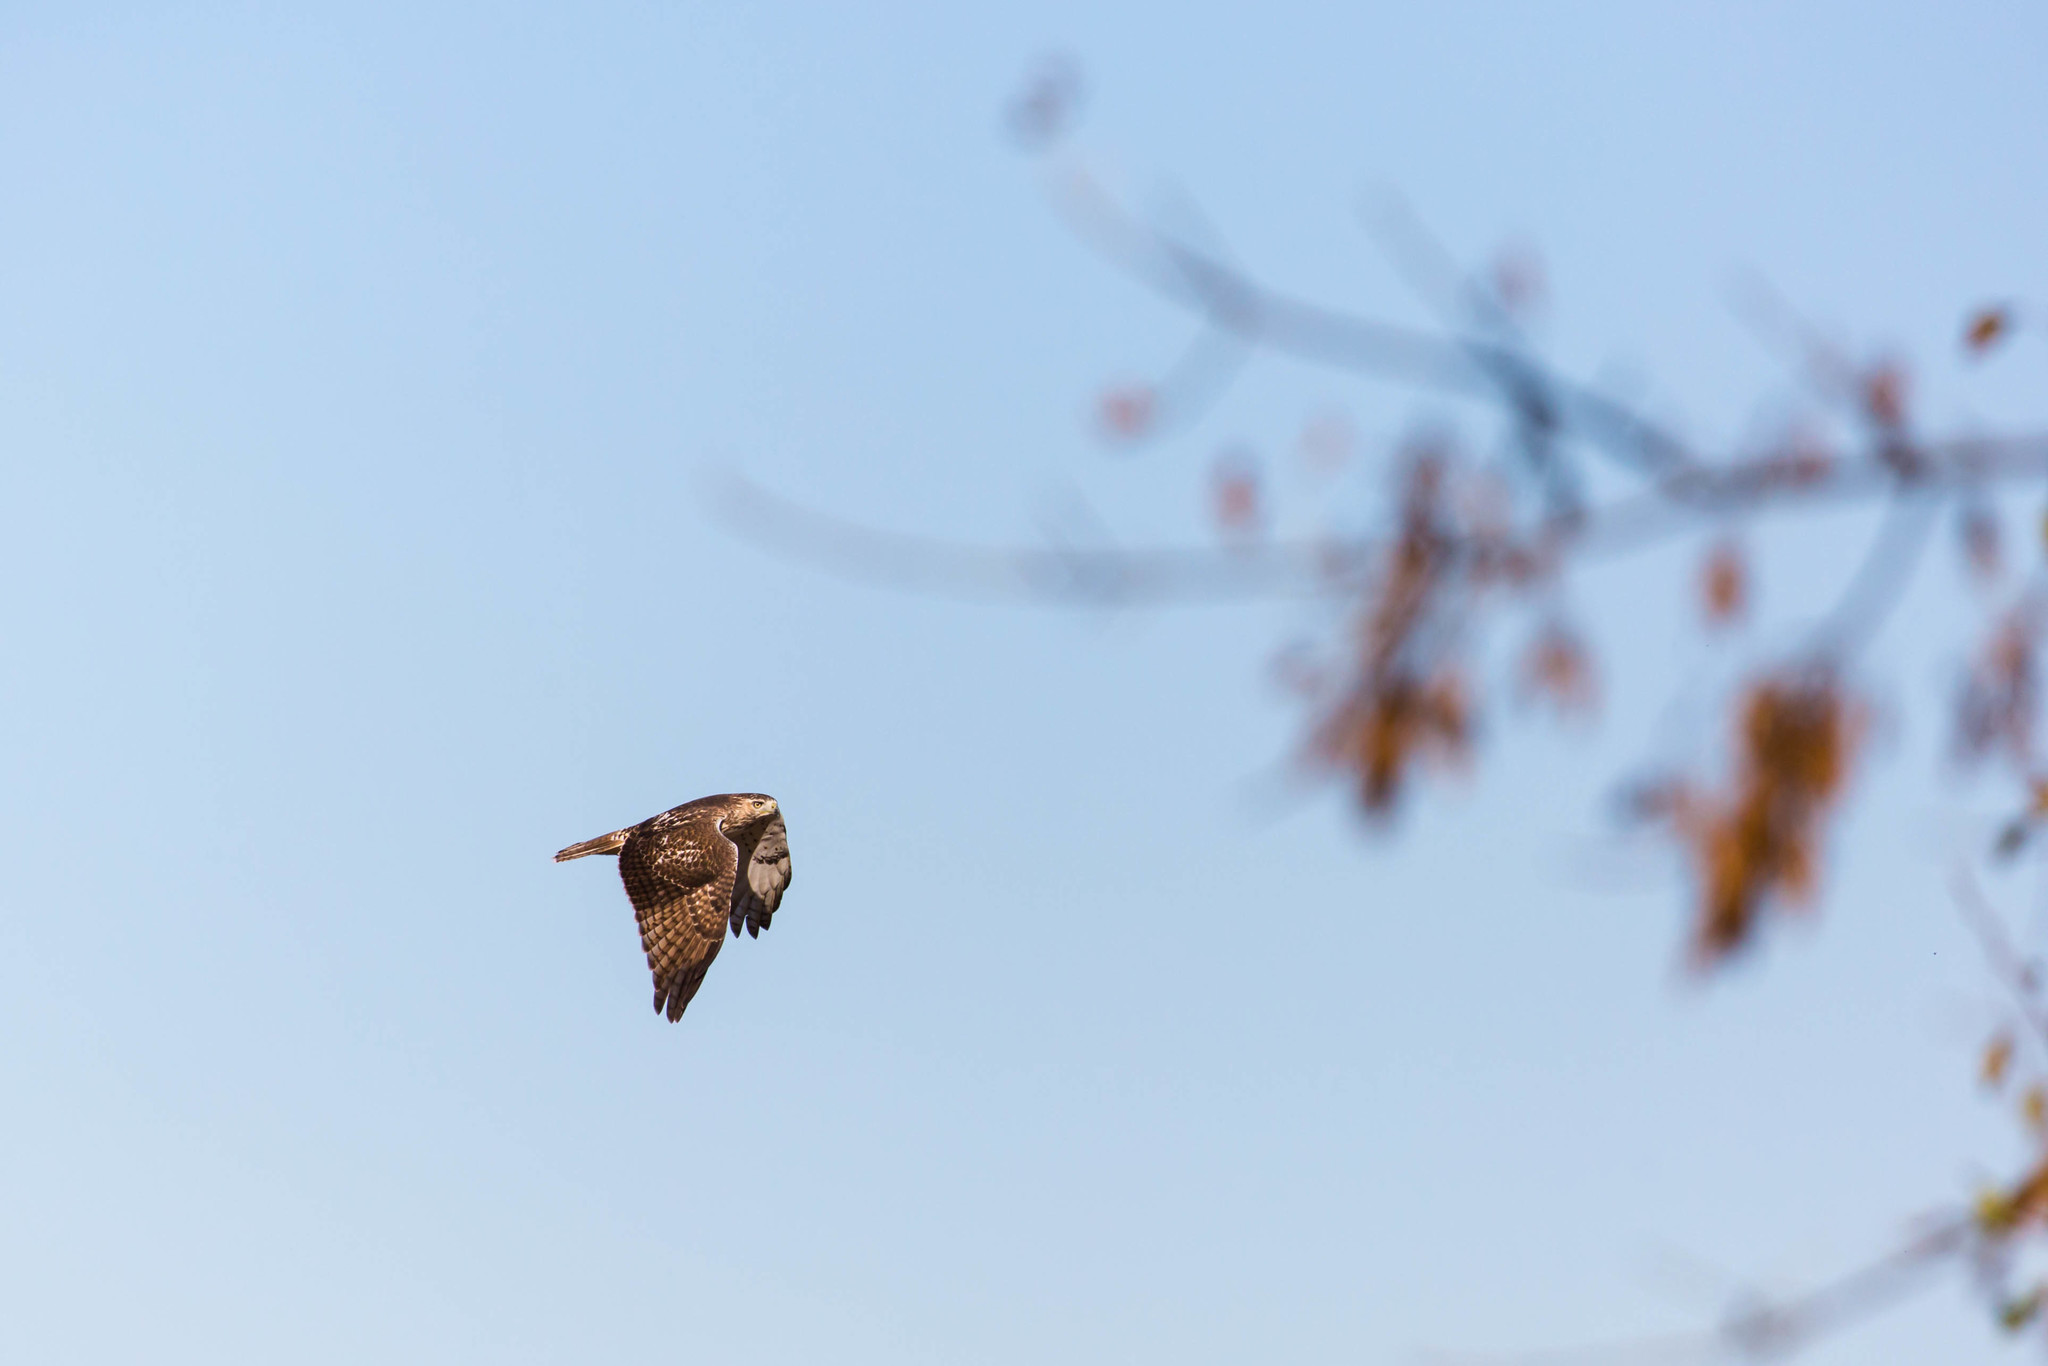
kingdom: Animalia
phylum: Chordata
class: Aves
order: Accipitriformes
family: Accipitridae
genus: Buteo
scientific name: Buteo jamaicensis
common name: Red-tailed hawk
